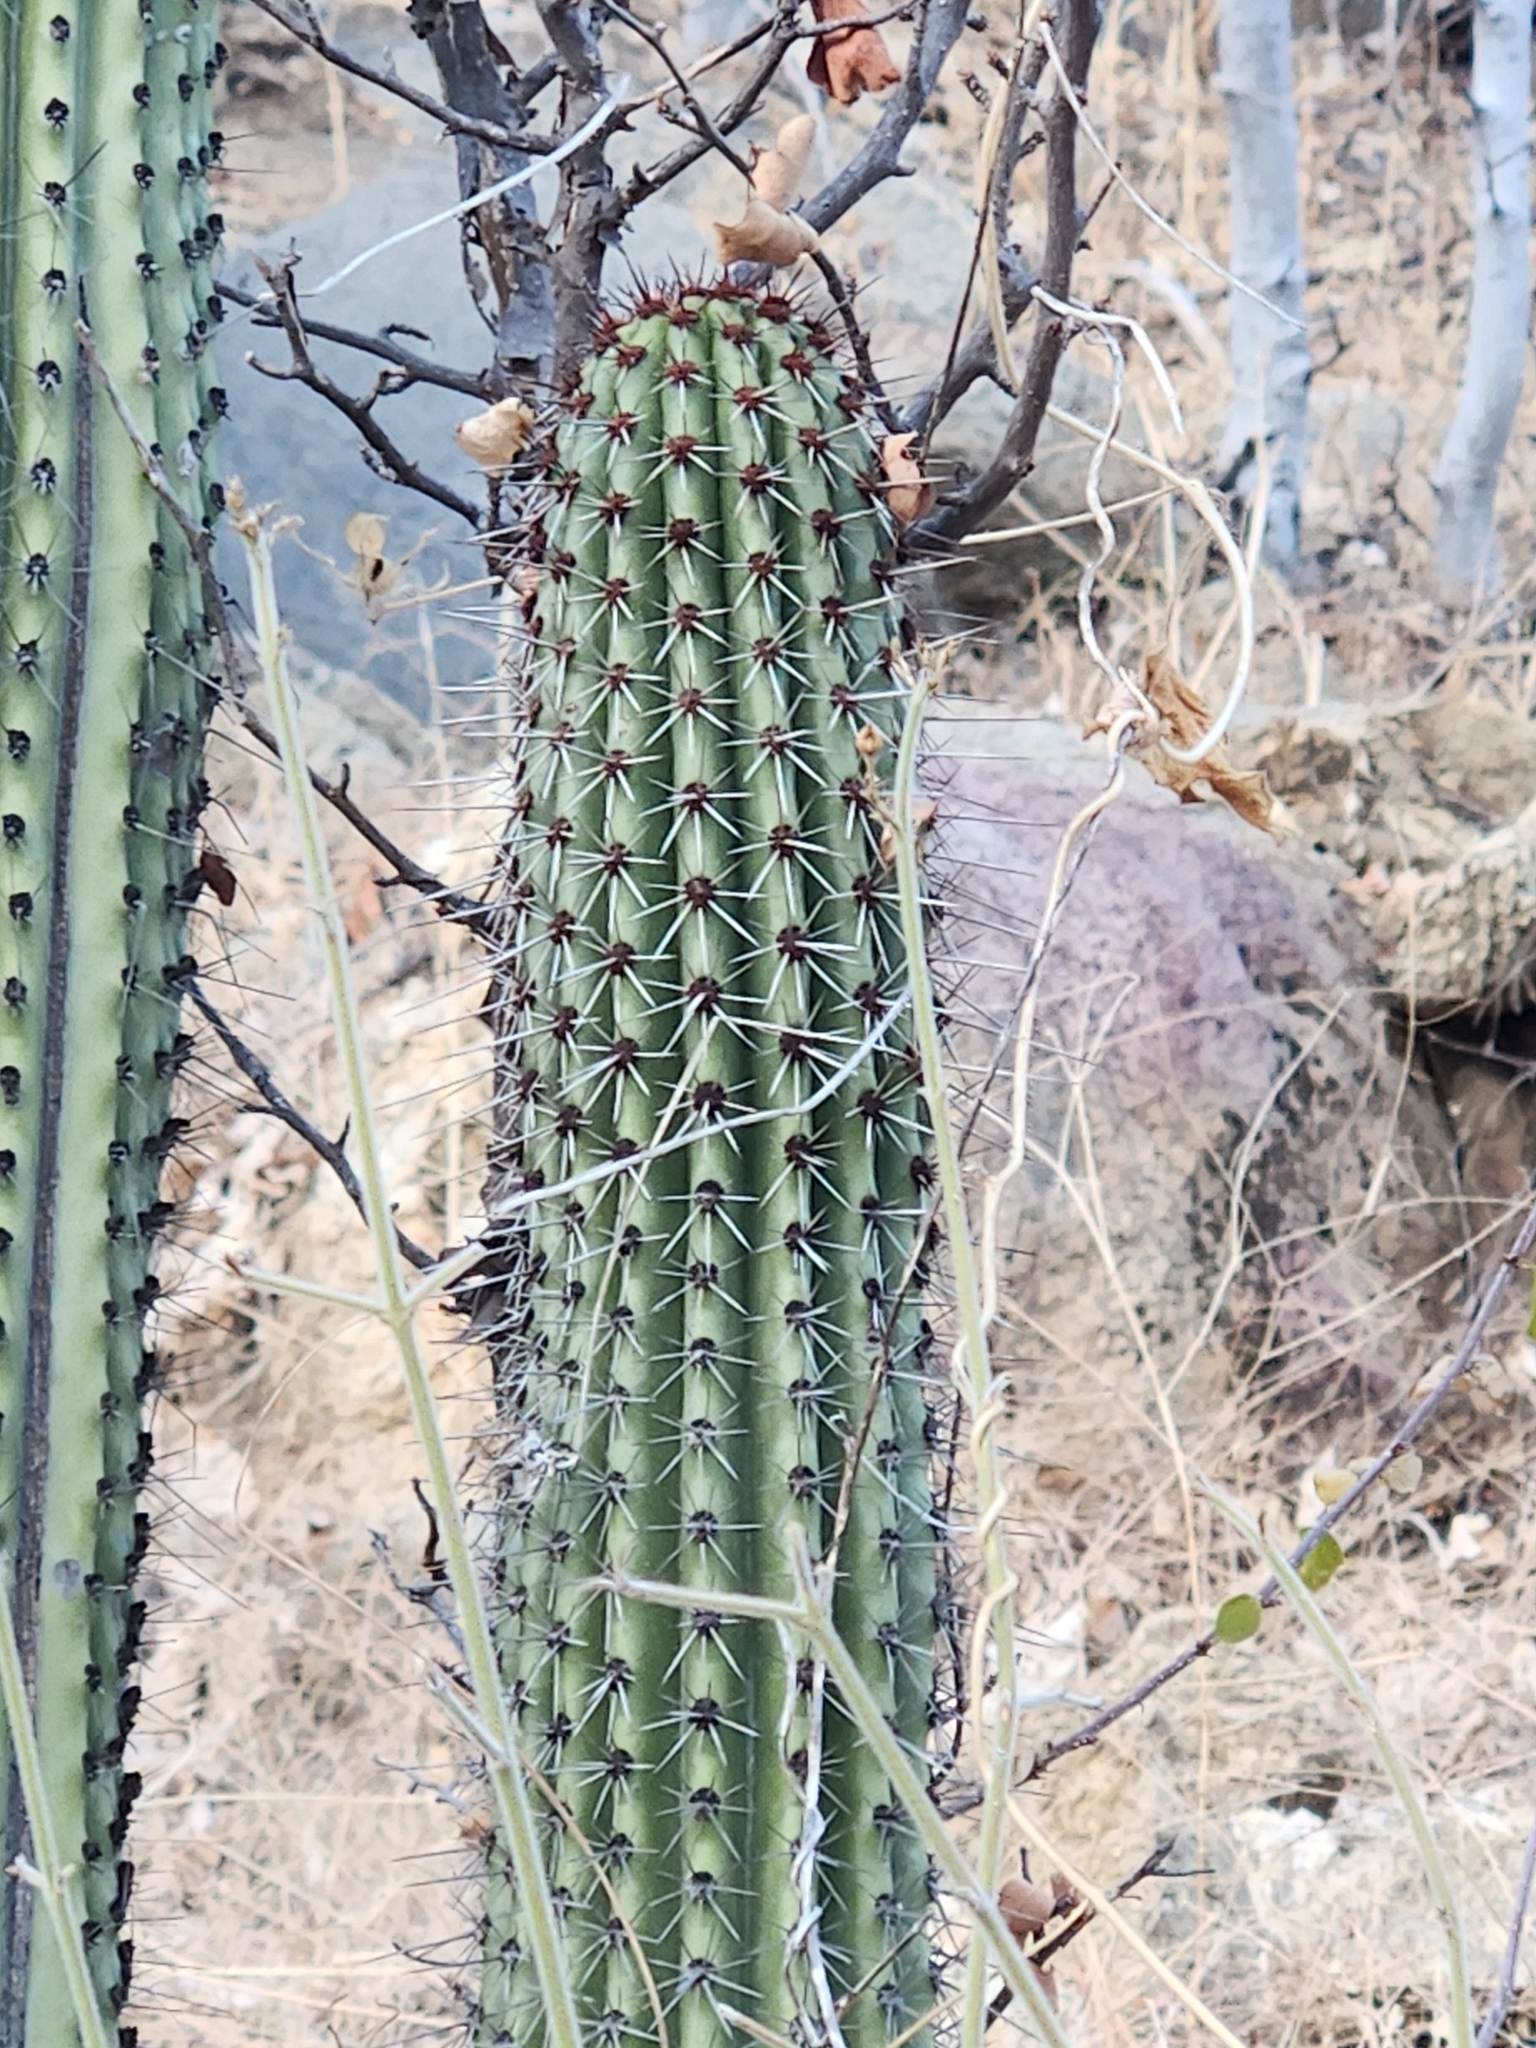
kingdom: Plantae
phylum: Tracheophyta
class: Magnoliopsida
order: Caryophyllales
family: Cactaceae
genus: Stenocereus
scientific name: Stenocereus thurberi
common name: Organ pipe cactus
